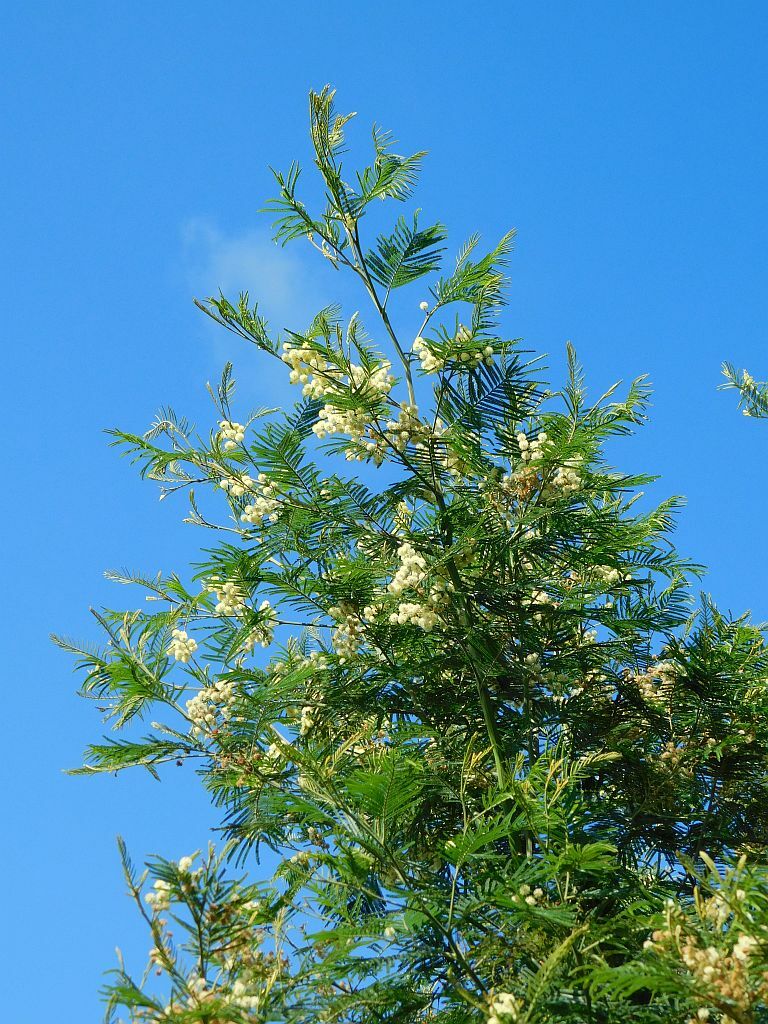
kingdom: Plantae
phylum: Tracheophyta
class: Magnoliopsida
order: Fabales
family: Fabaceae
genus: Acacia
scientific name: Acacia mearnsii
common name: Black wattle
